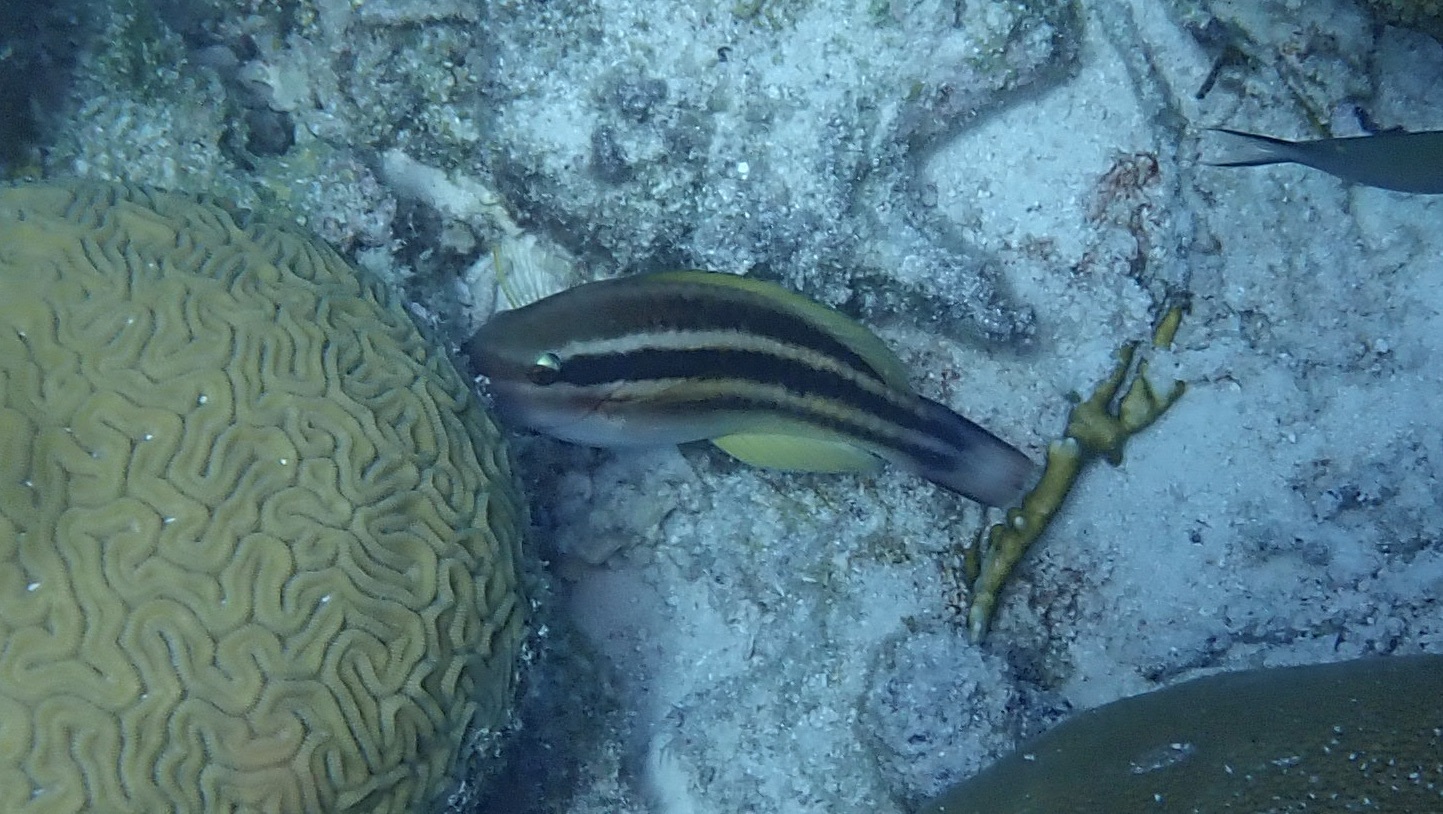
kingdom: Animalia
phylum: Chordata
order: Perciformes
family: Scaridae
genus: Scarus
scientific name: Scarus taeniopterus
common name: Princess parrotfish
